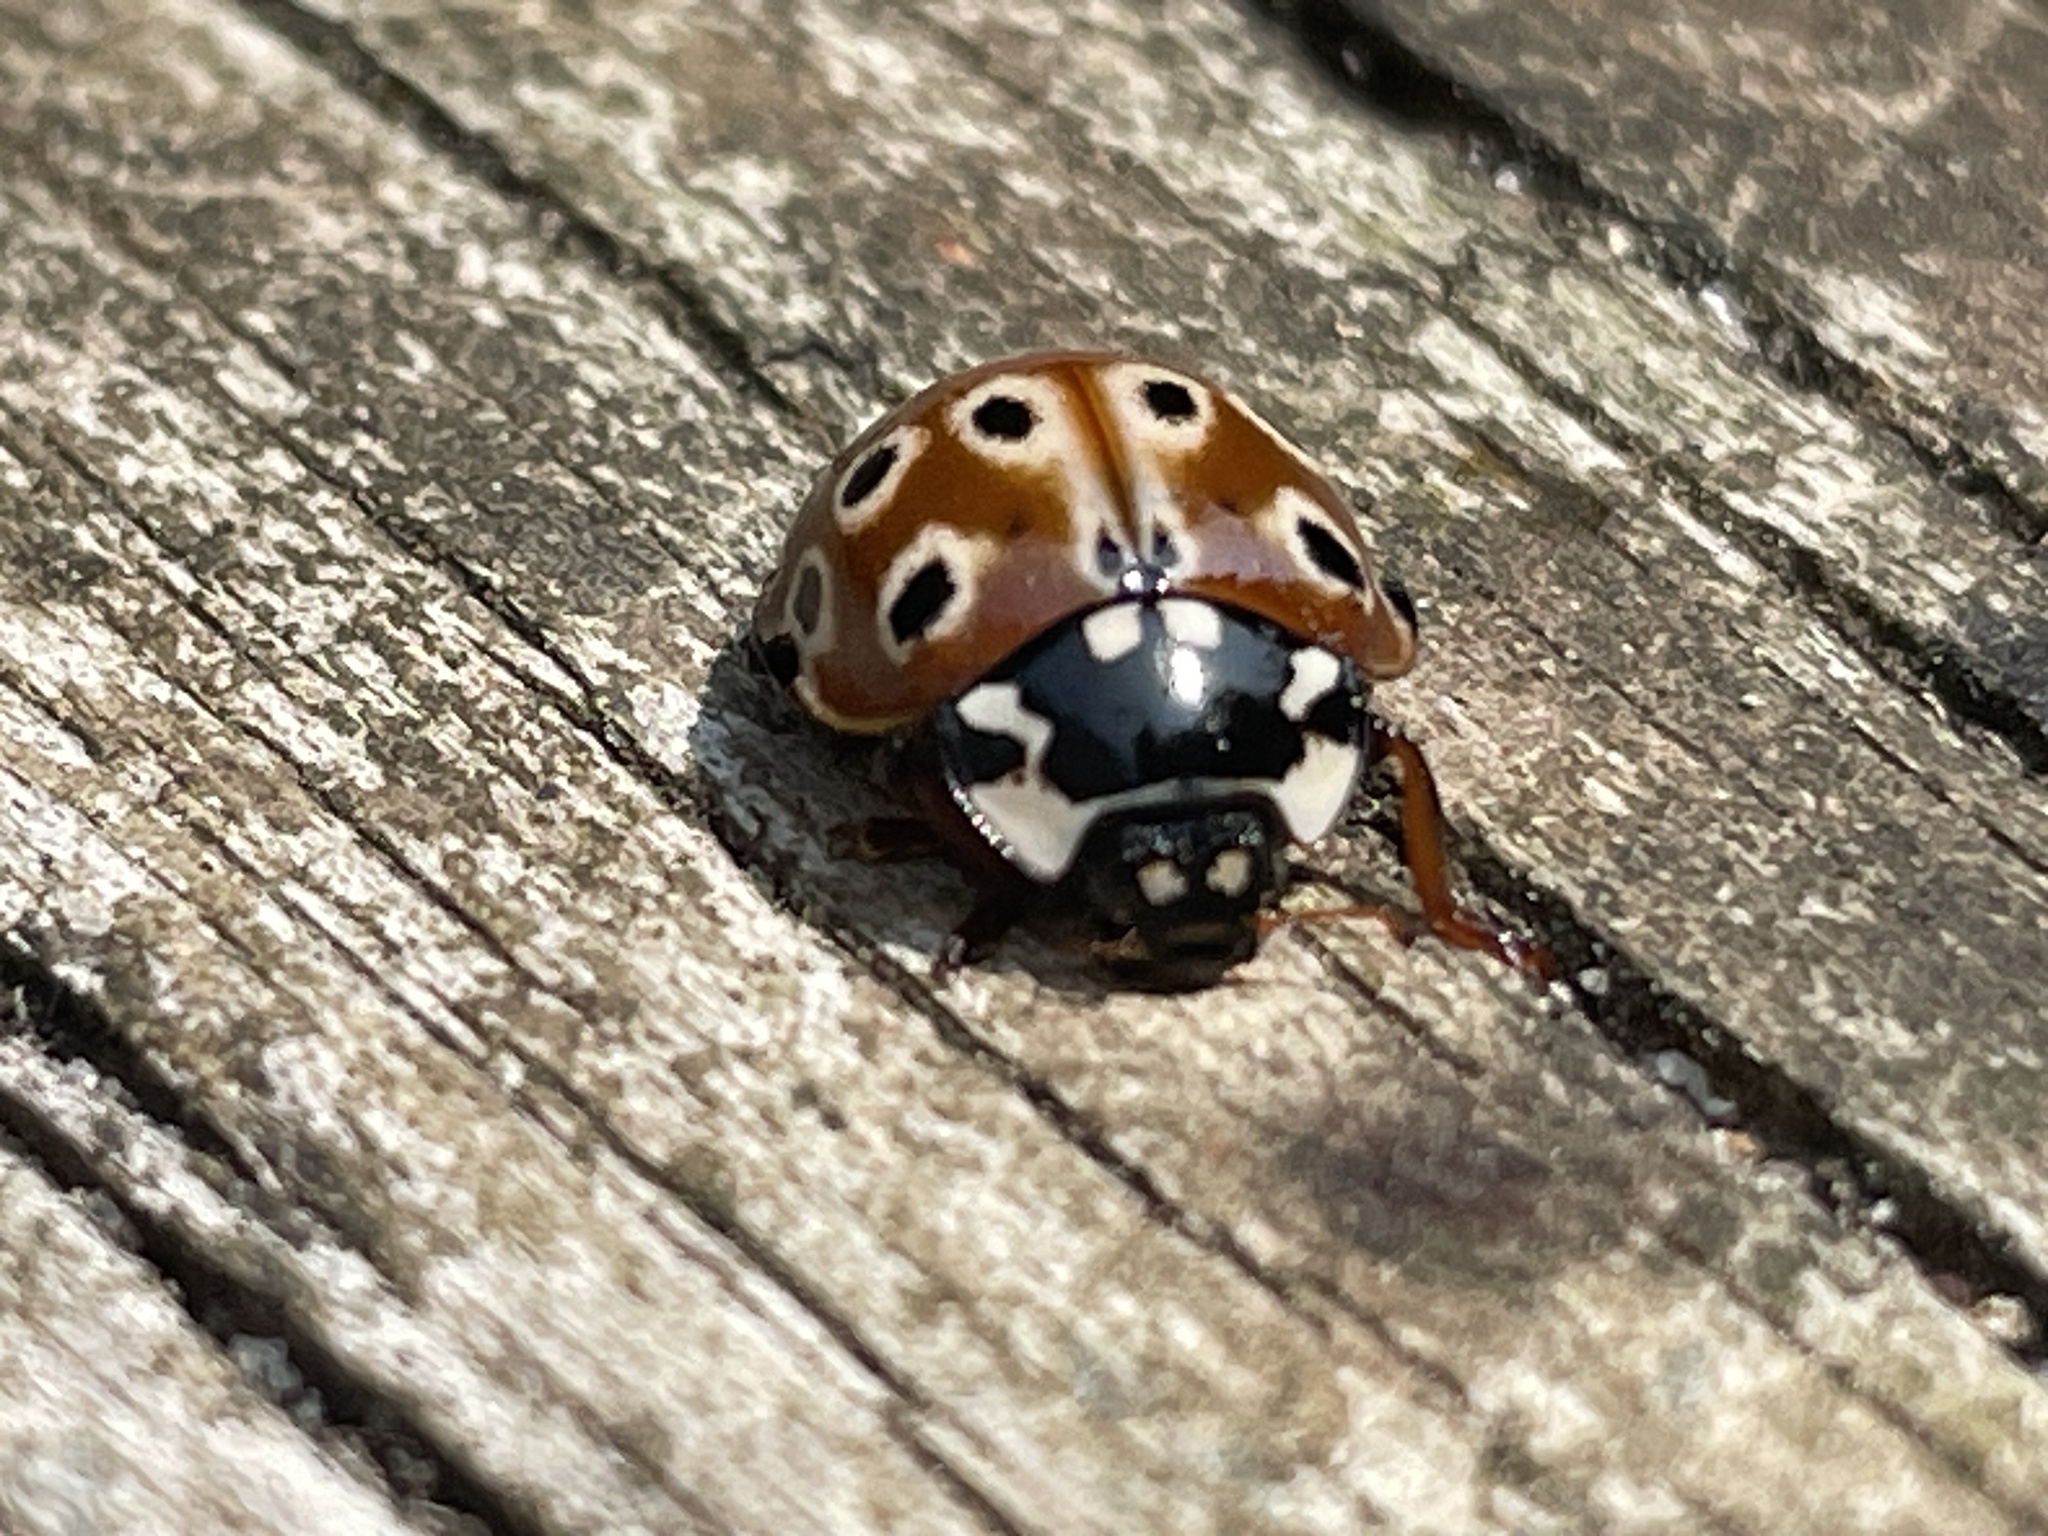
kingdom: Animalia
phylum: Arthropoda
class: Insecta
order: Coleoptera
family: Coccinellidae
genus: Anatis
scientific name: Anatis mali
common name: Eye-spotted lady beetle
